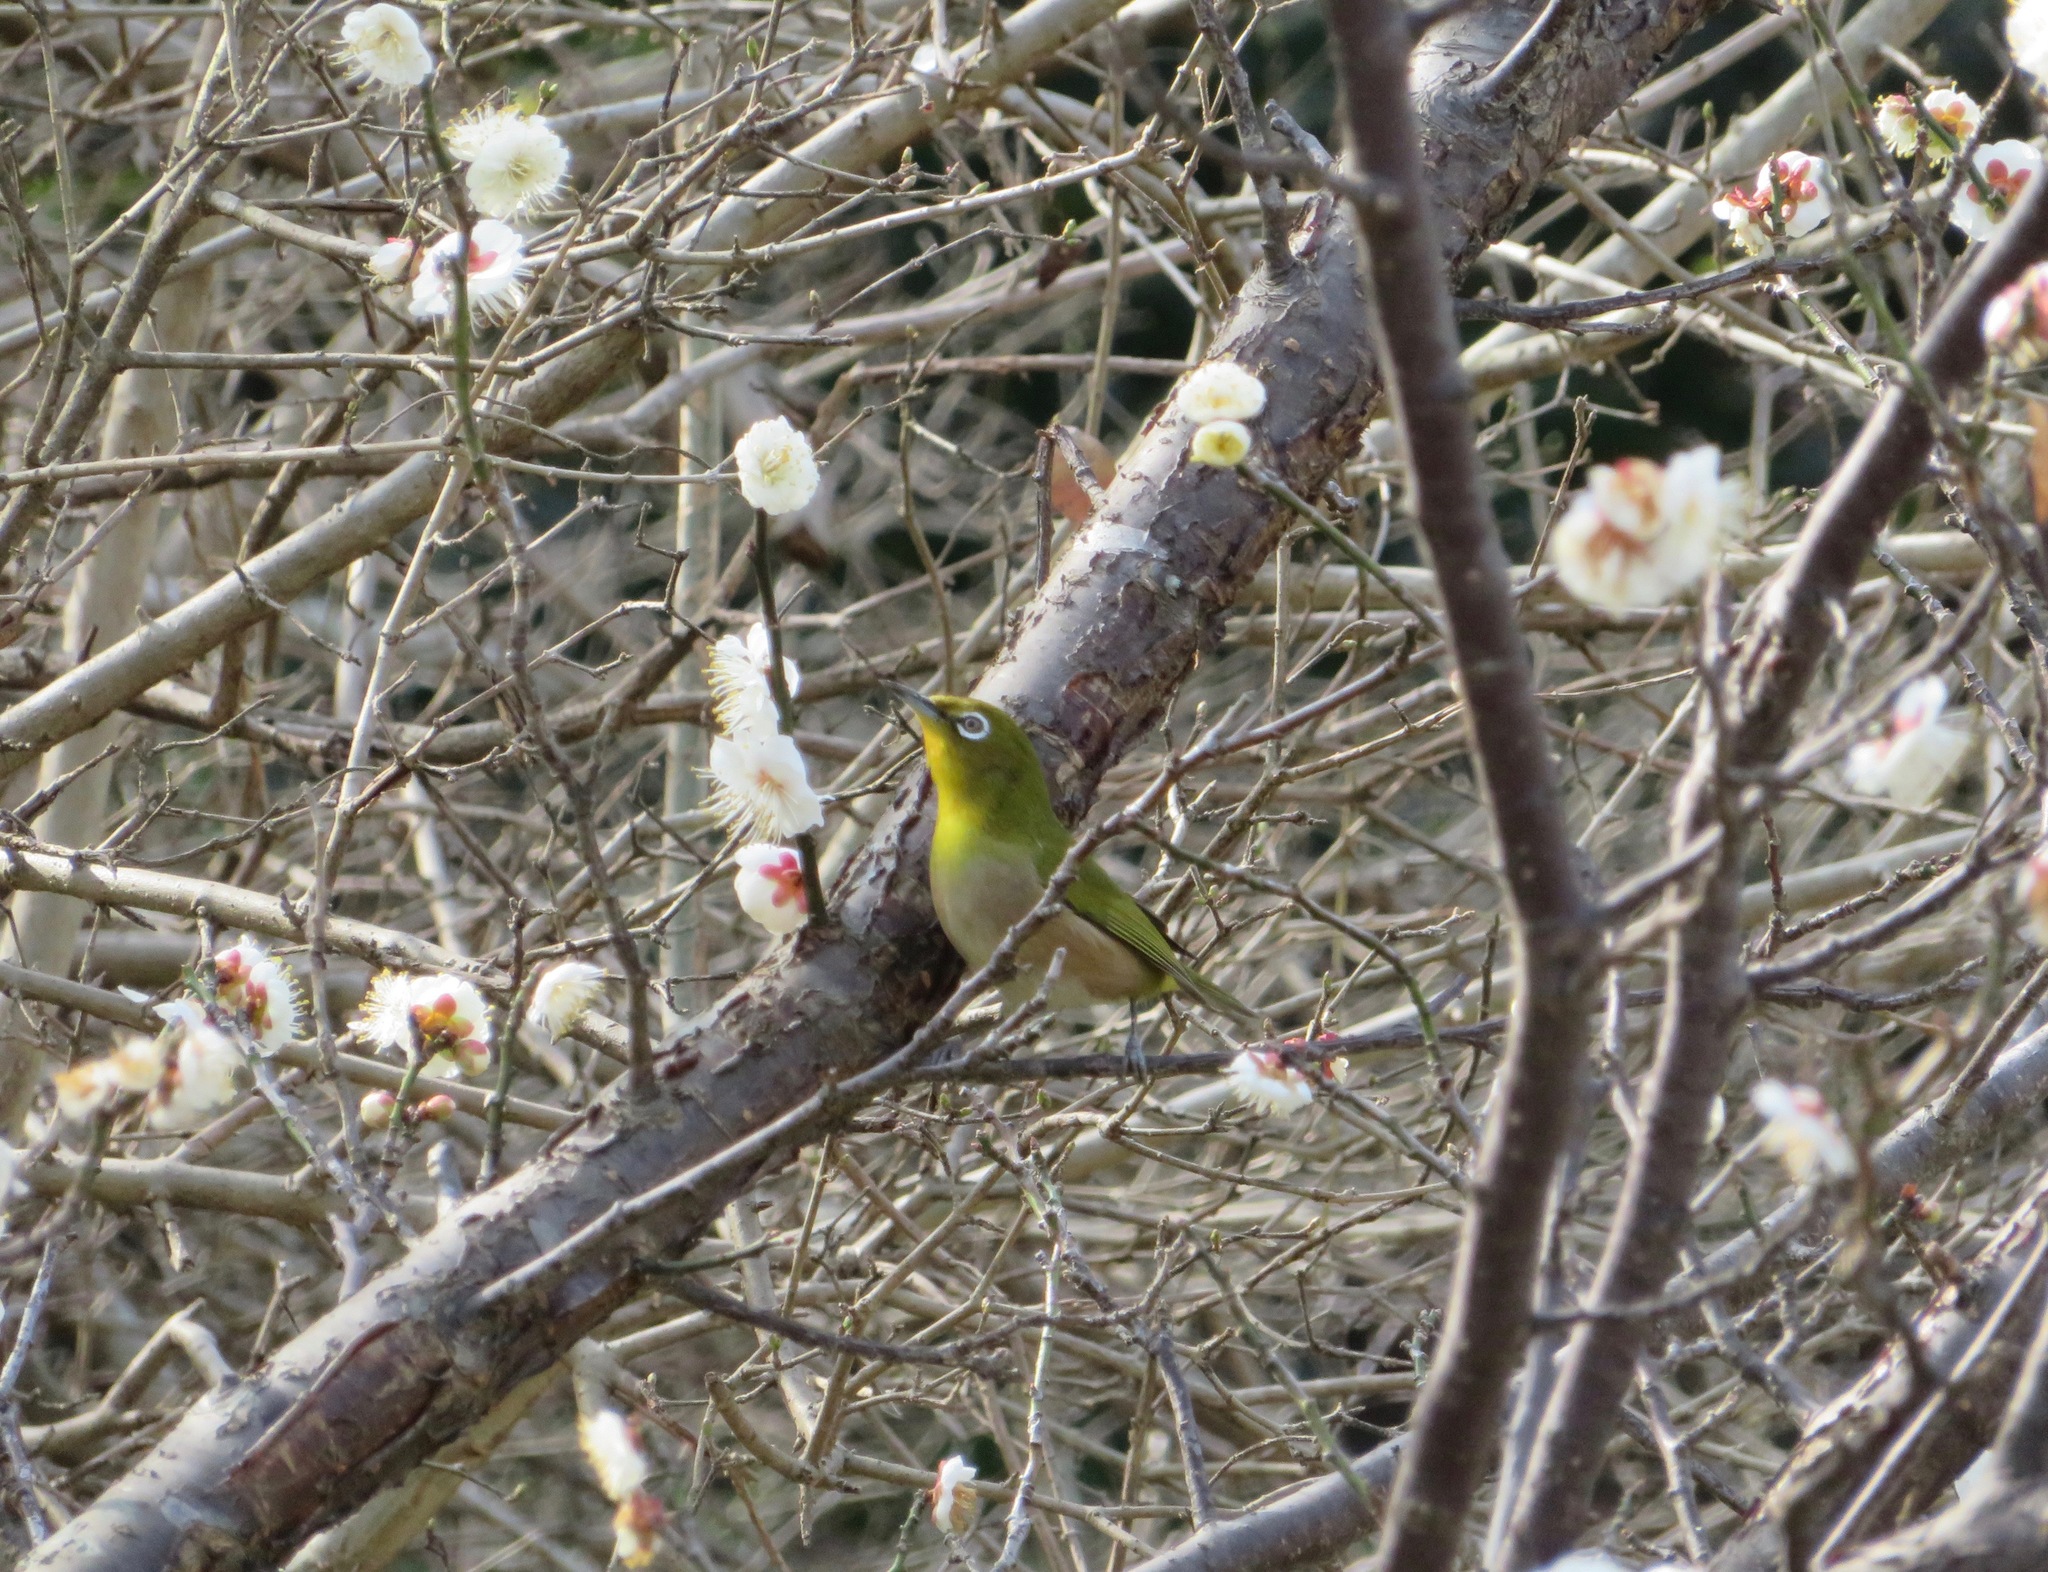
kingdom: Animalia
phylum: Chordata
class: Aves
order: Passeriformes
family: Zosteropidae
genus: Zosterops
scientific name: Zosterops japonicus
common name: Japanese white-eye
